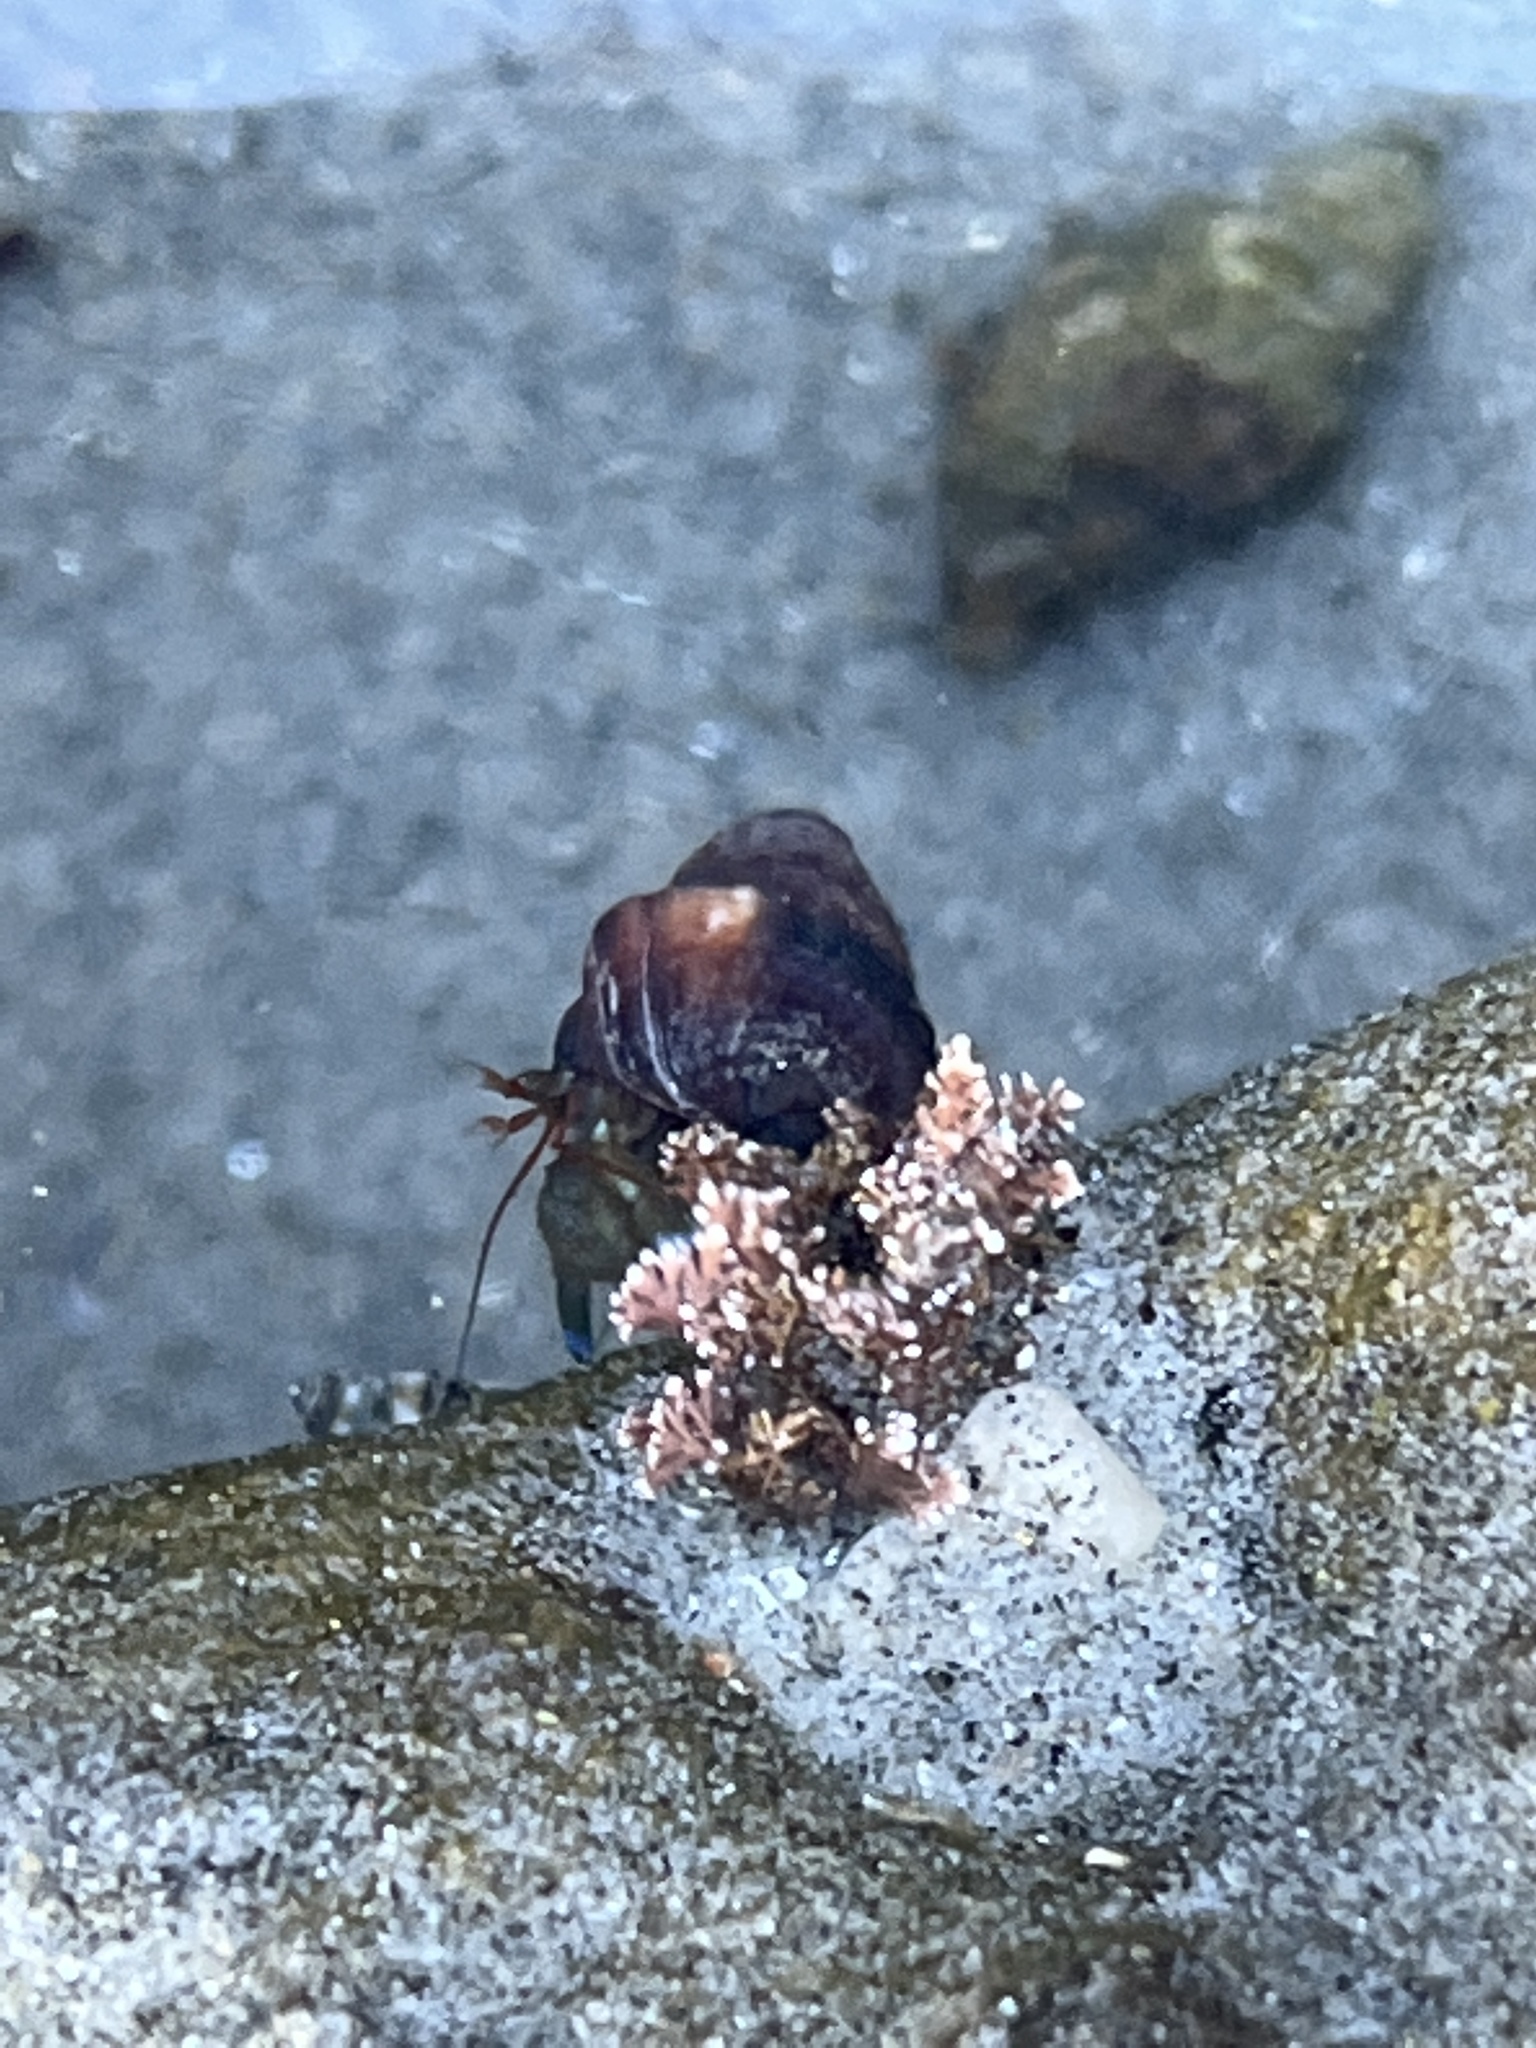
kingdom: Animalia
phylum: Arthropoda
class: Malacostraca
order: Decapoda
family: Paguridae
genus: Pagurus
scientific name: Pagurus samuelis
